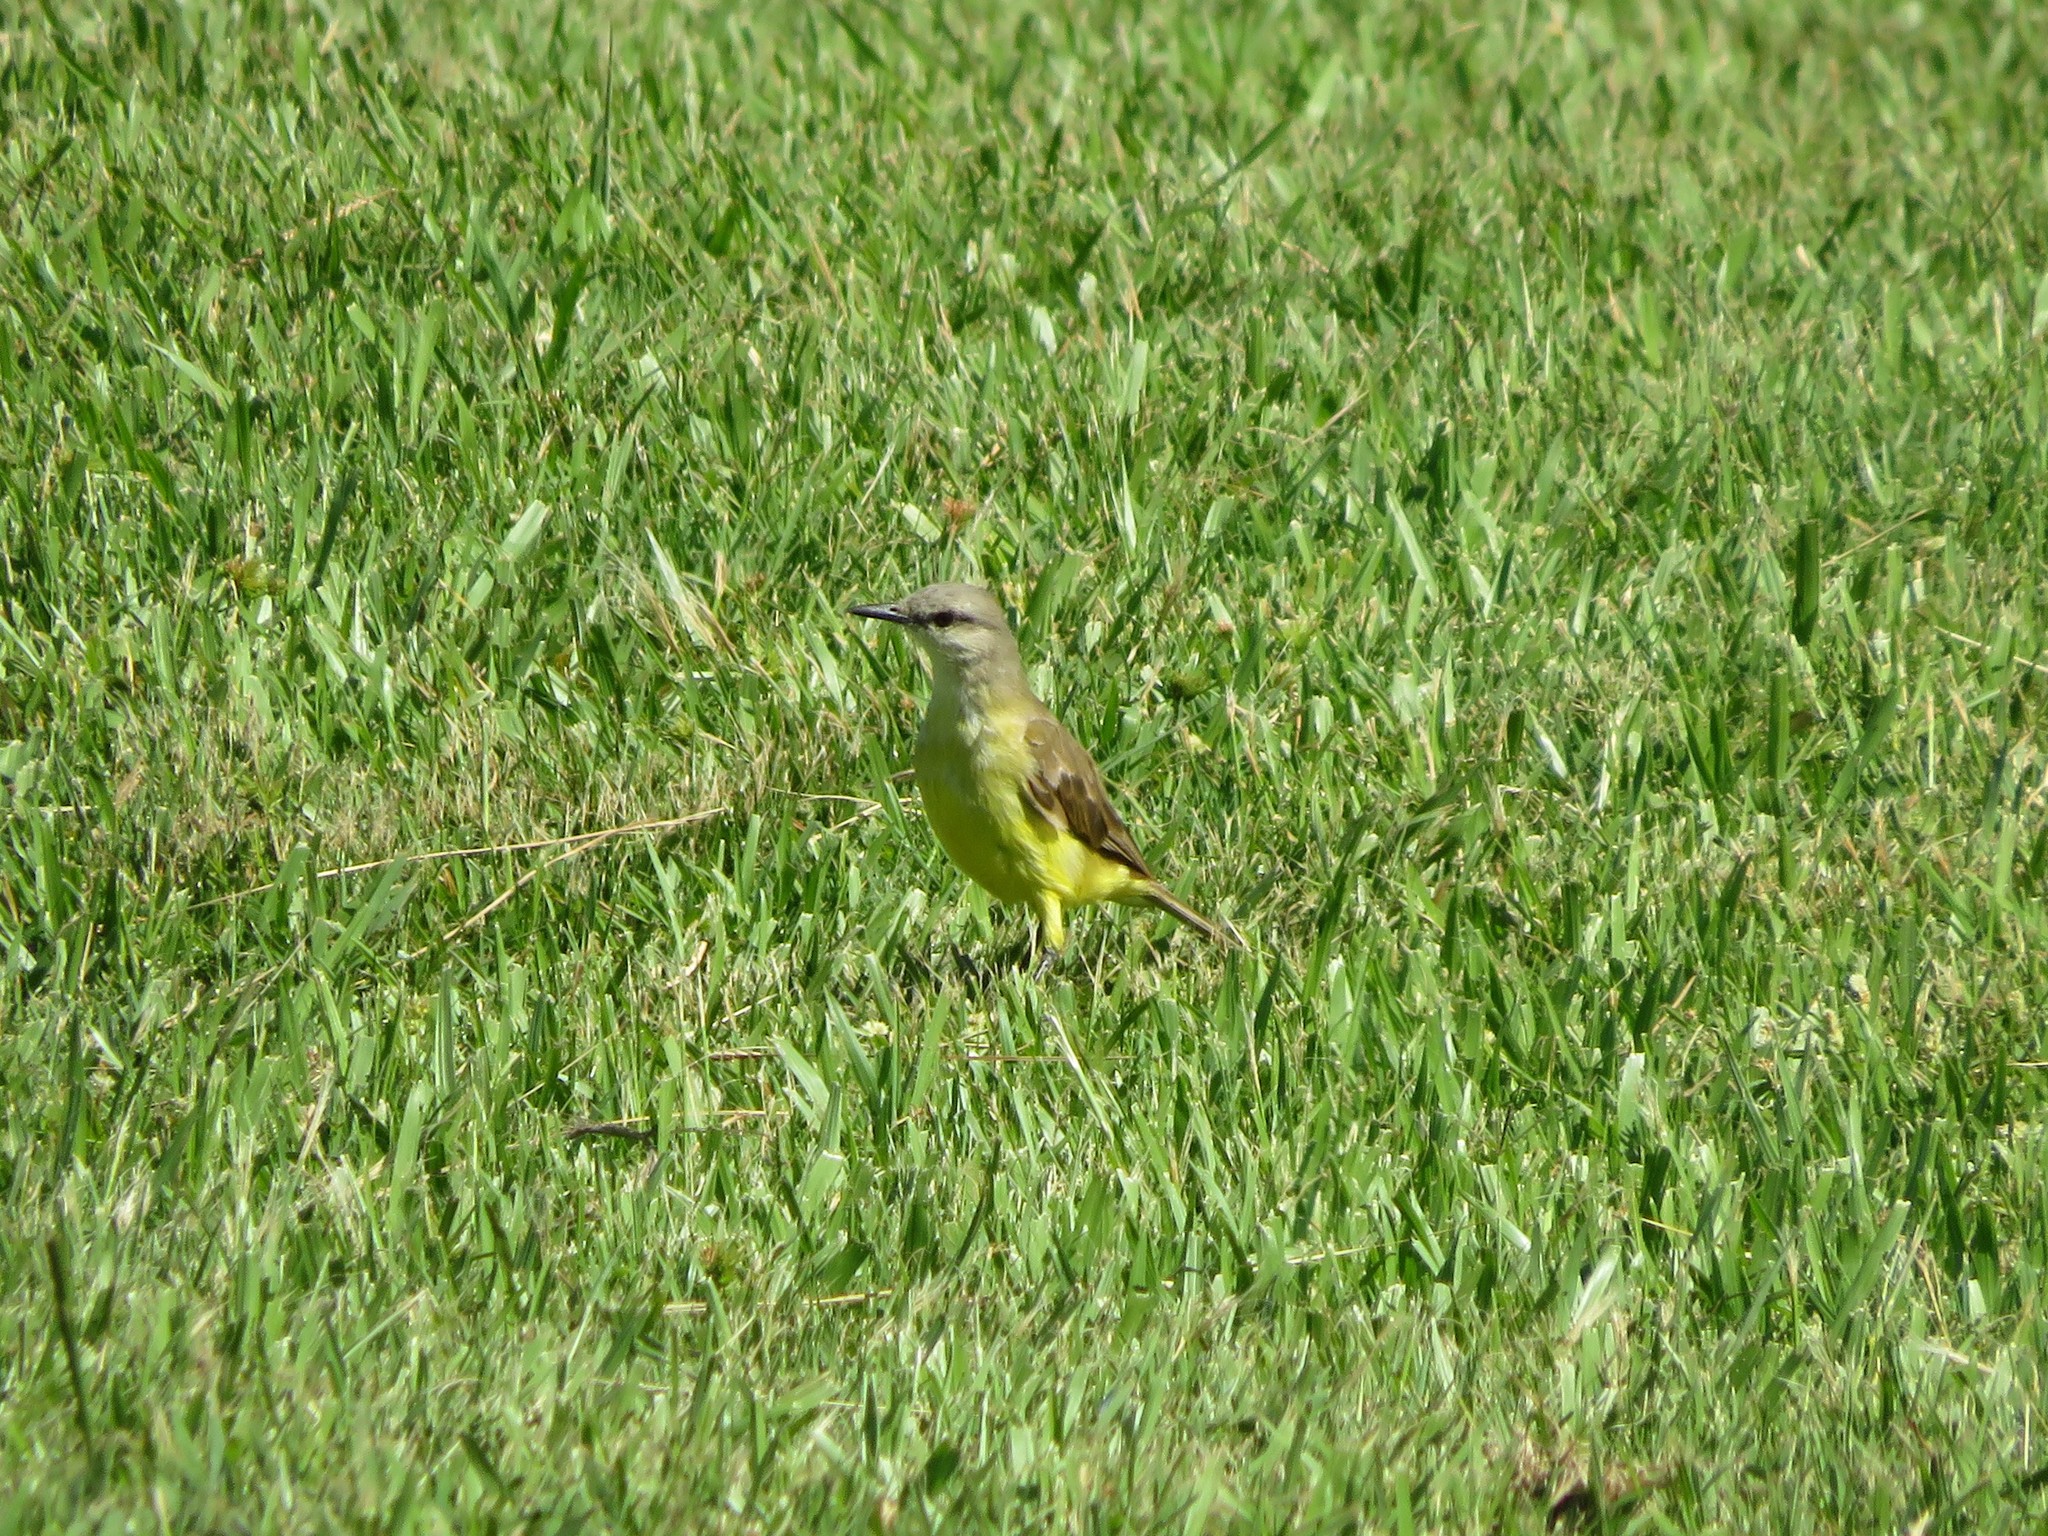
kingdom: Animalia
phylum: Chordata
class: Aves
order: Passeriformes
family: Tyrannidae
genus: Machetornis
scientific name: Machetornis rixosa
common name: Cattle tyrant
